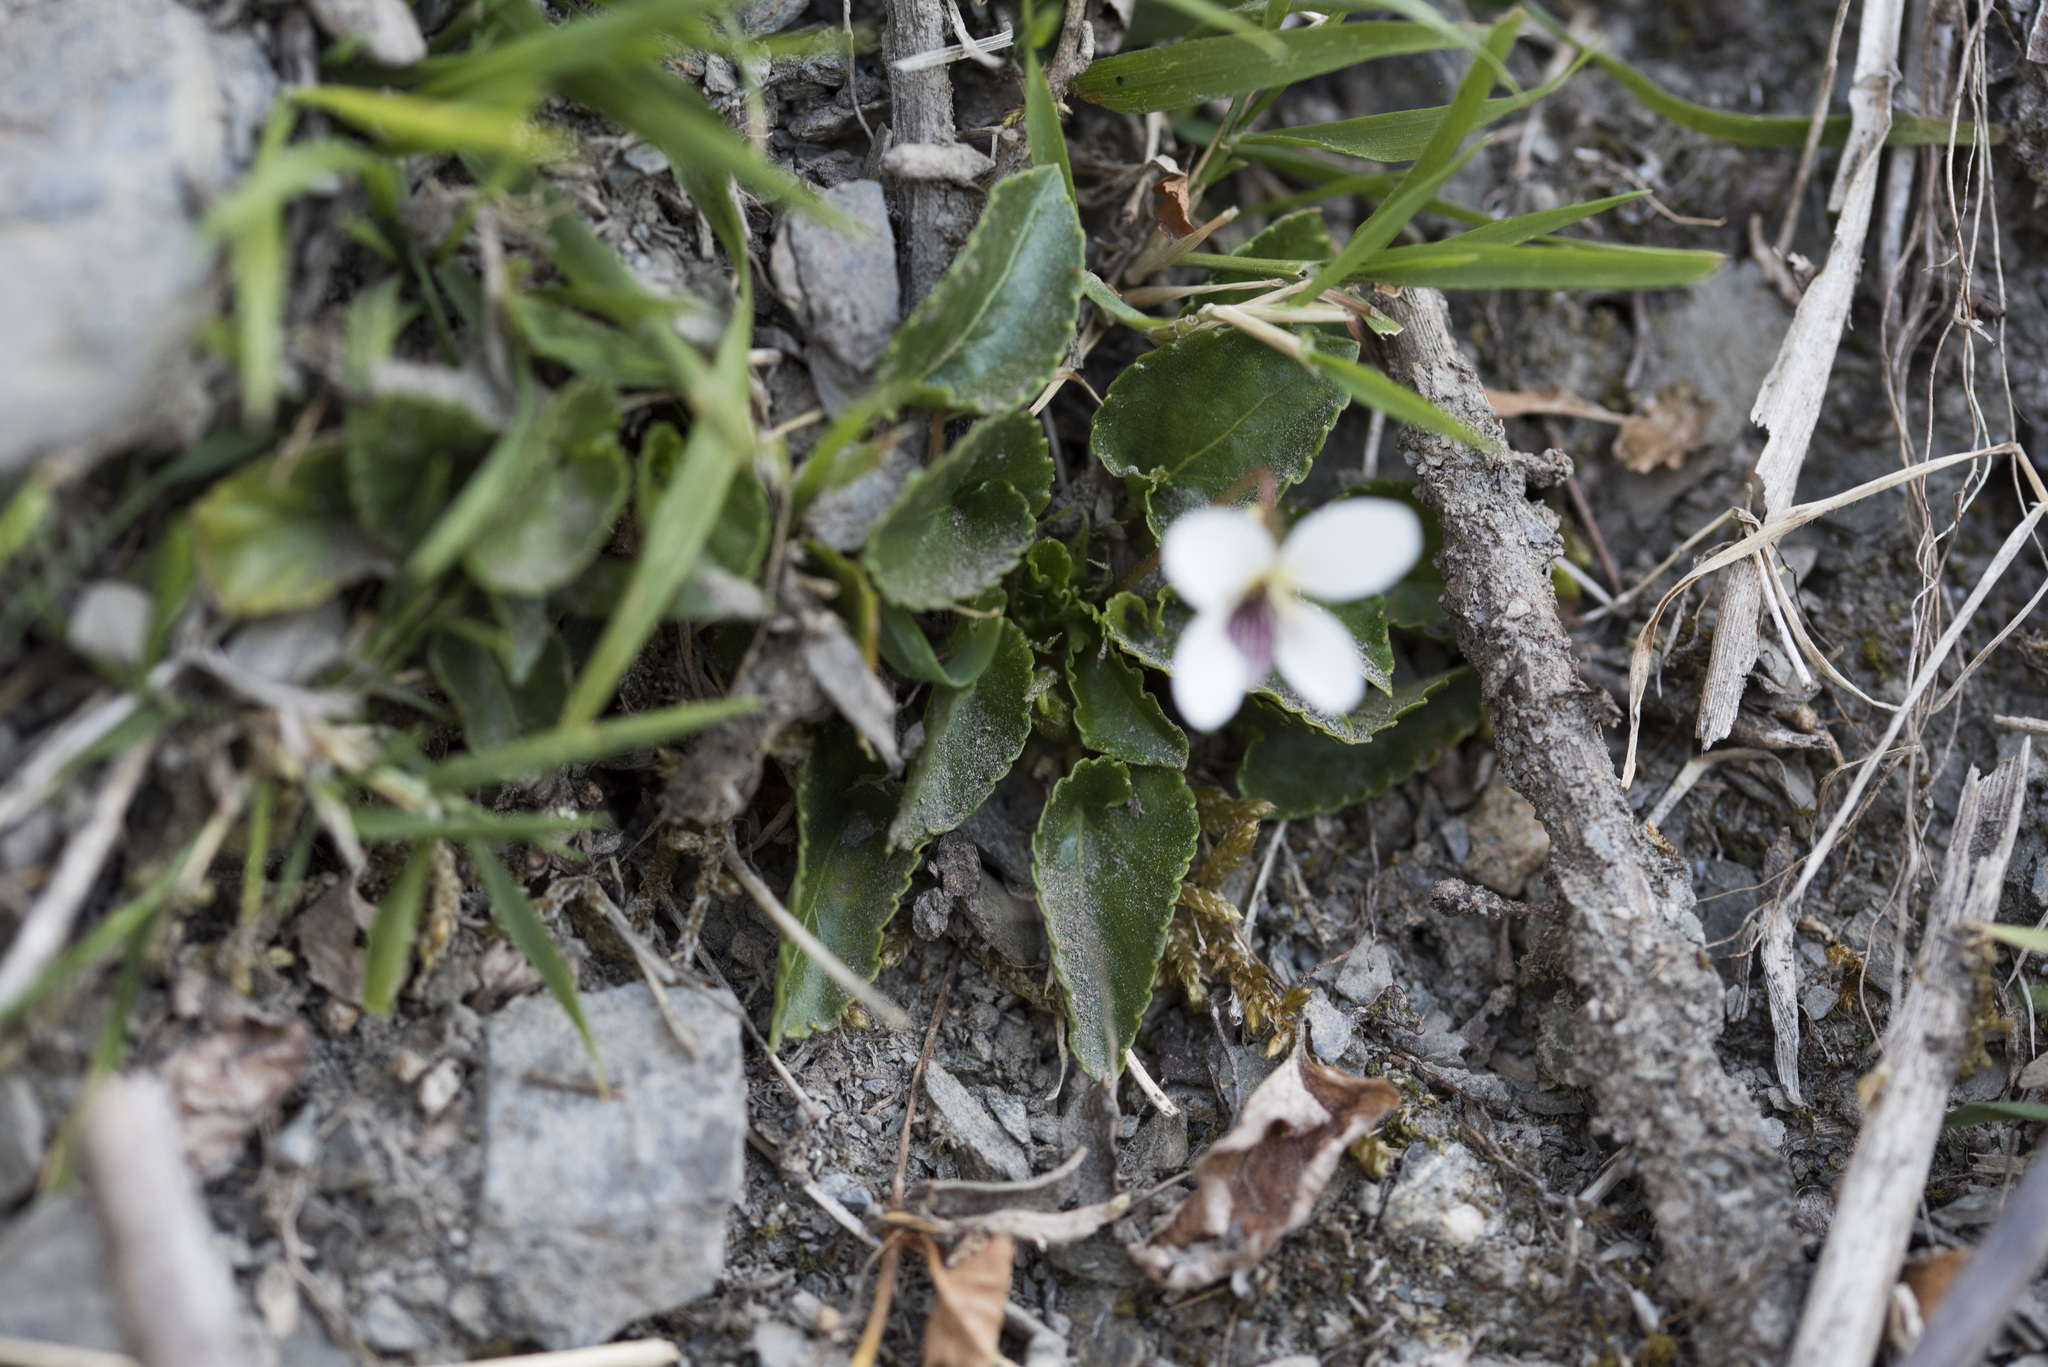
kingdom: Plantae
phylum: Tracheophyta
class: Magnoliopsida
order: Malpighiales
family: Violaceae
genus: Viola
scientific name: Viola adenothrix
